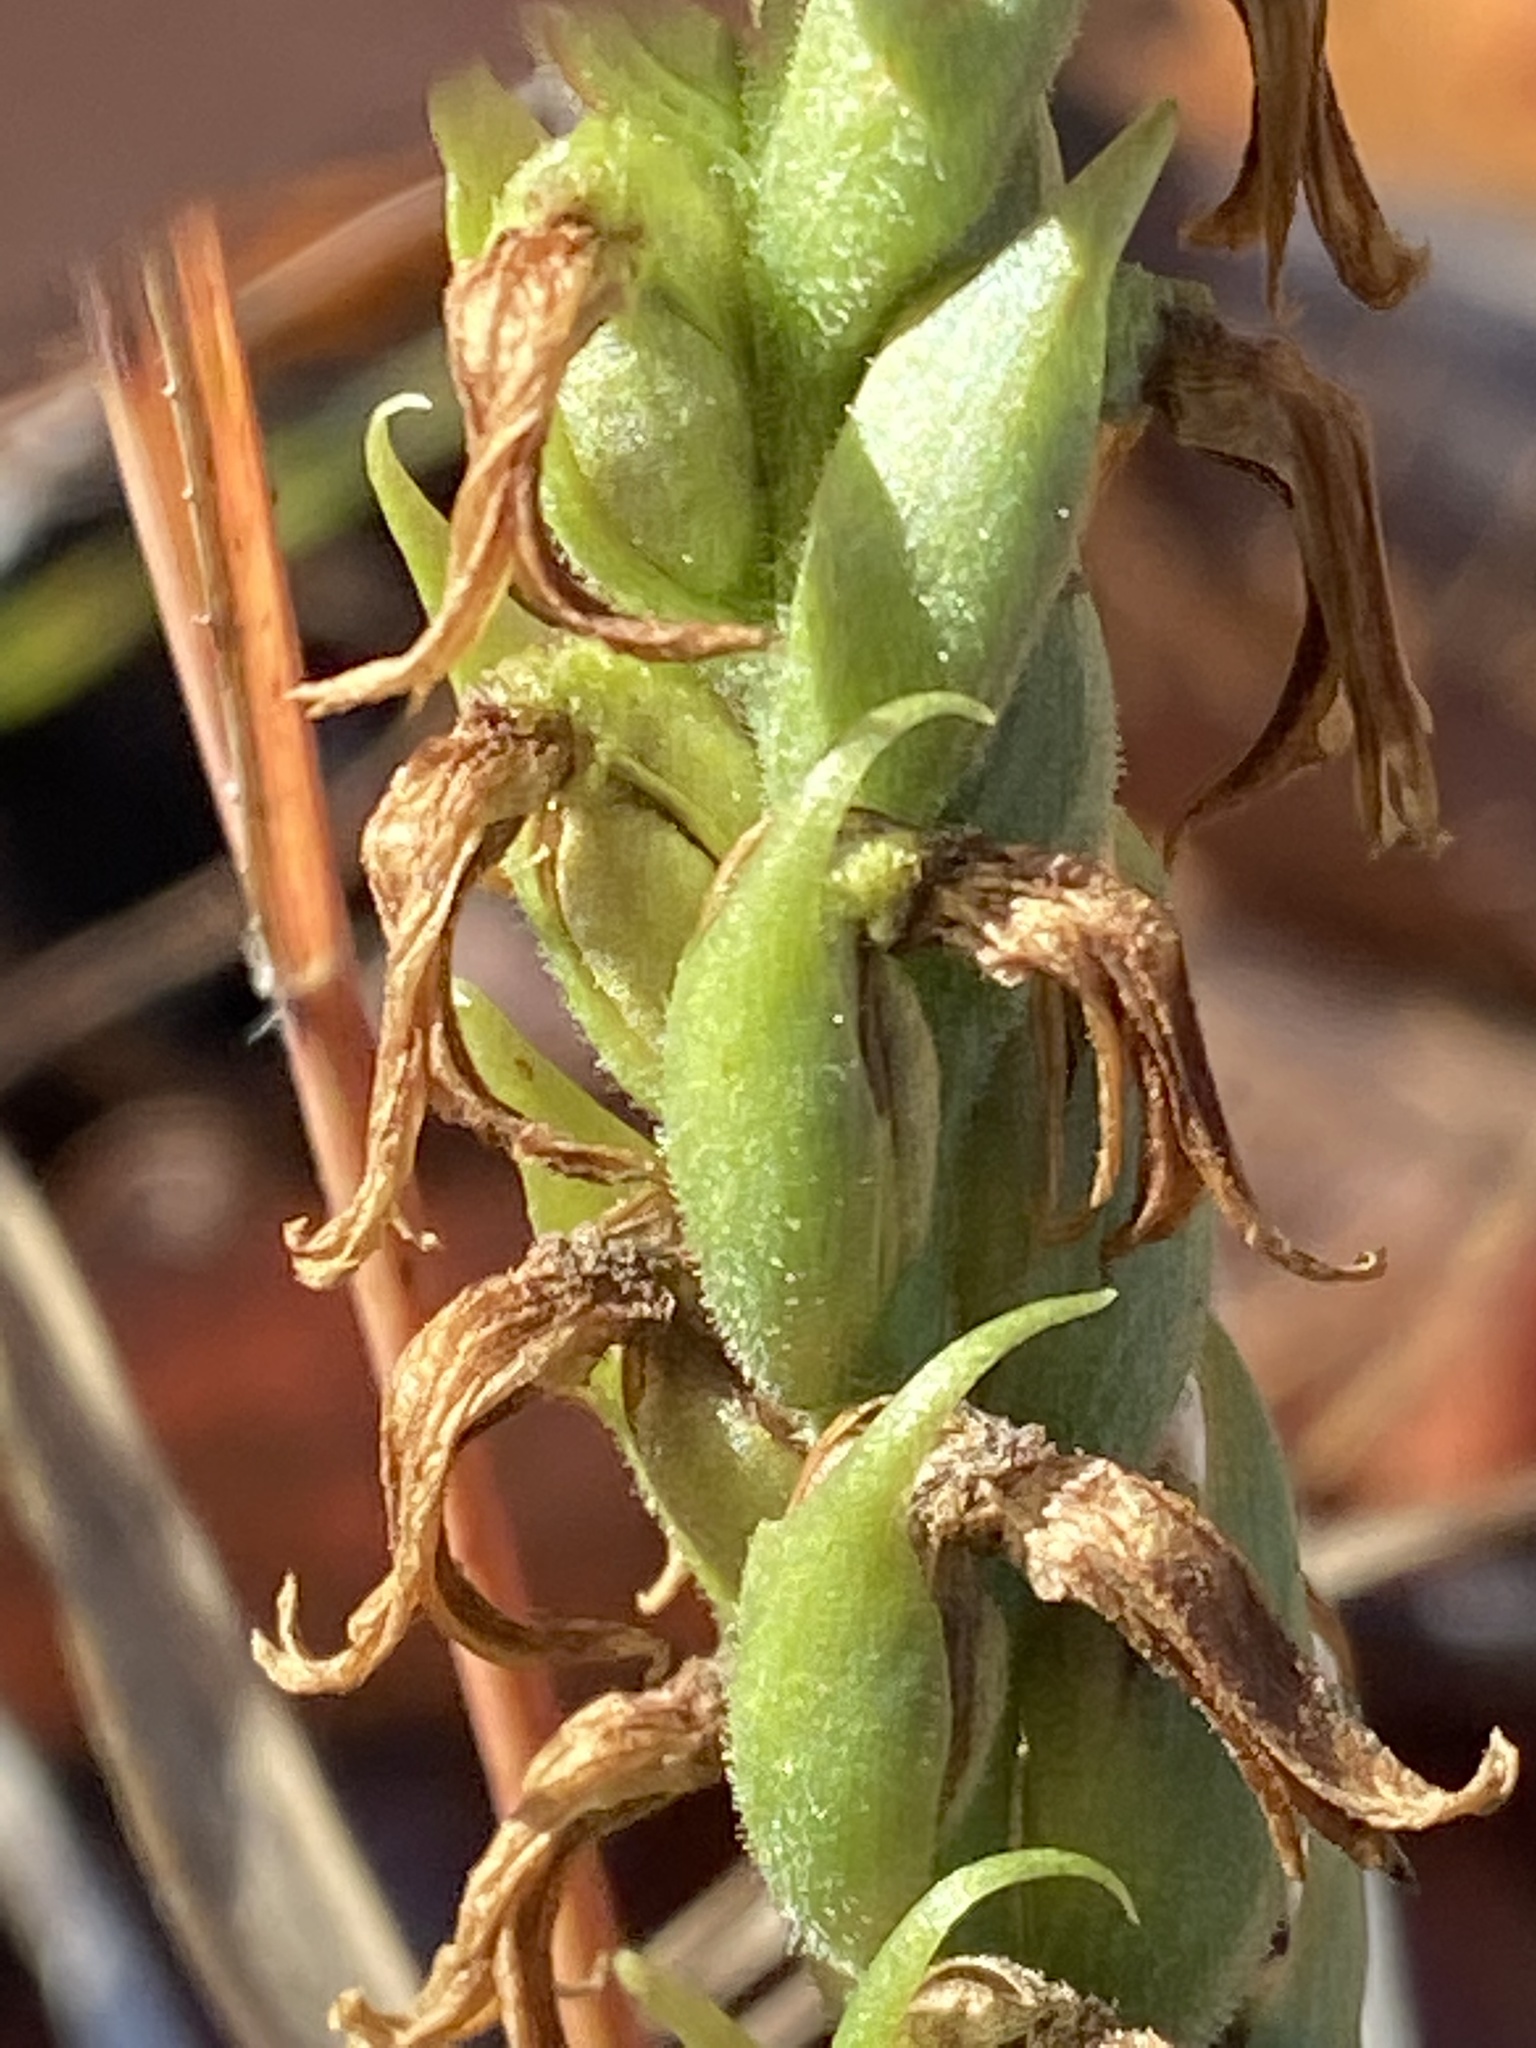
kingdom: Plantae
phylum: Tracheophyta
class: Liliopsida
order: Asparagales
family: Orchidaceae
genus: Spiranthes
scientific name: Spiranthes magnicamporum
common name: Great plains ladies'-tresses
